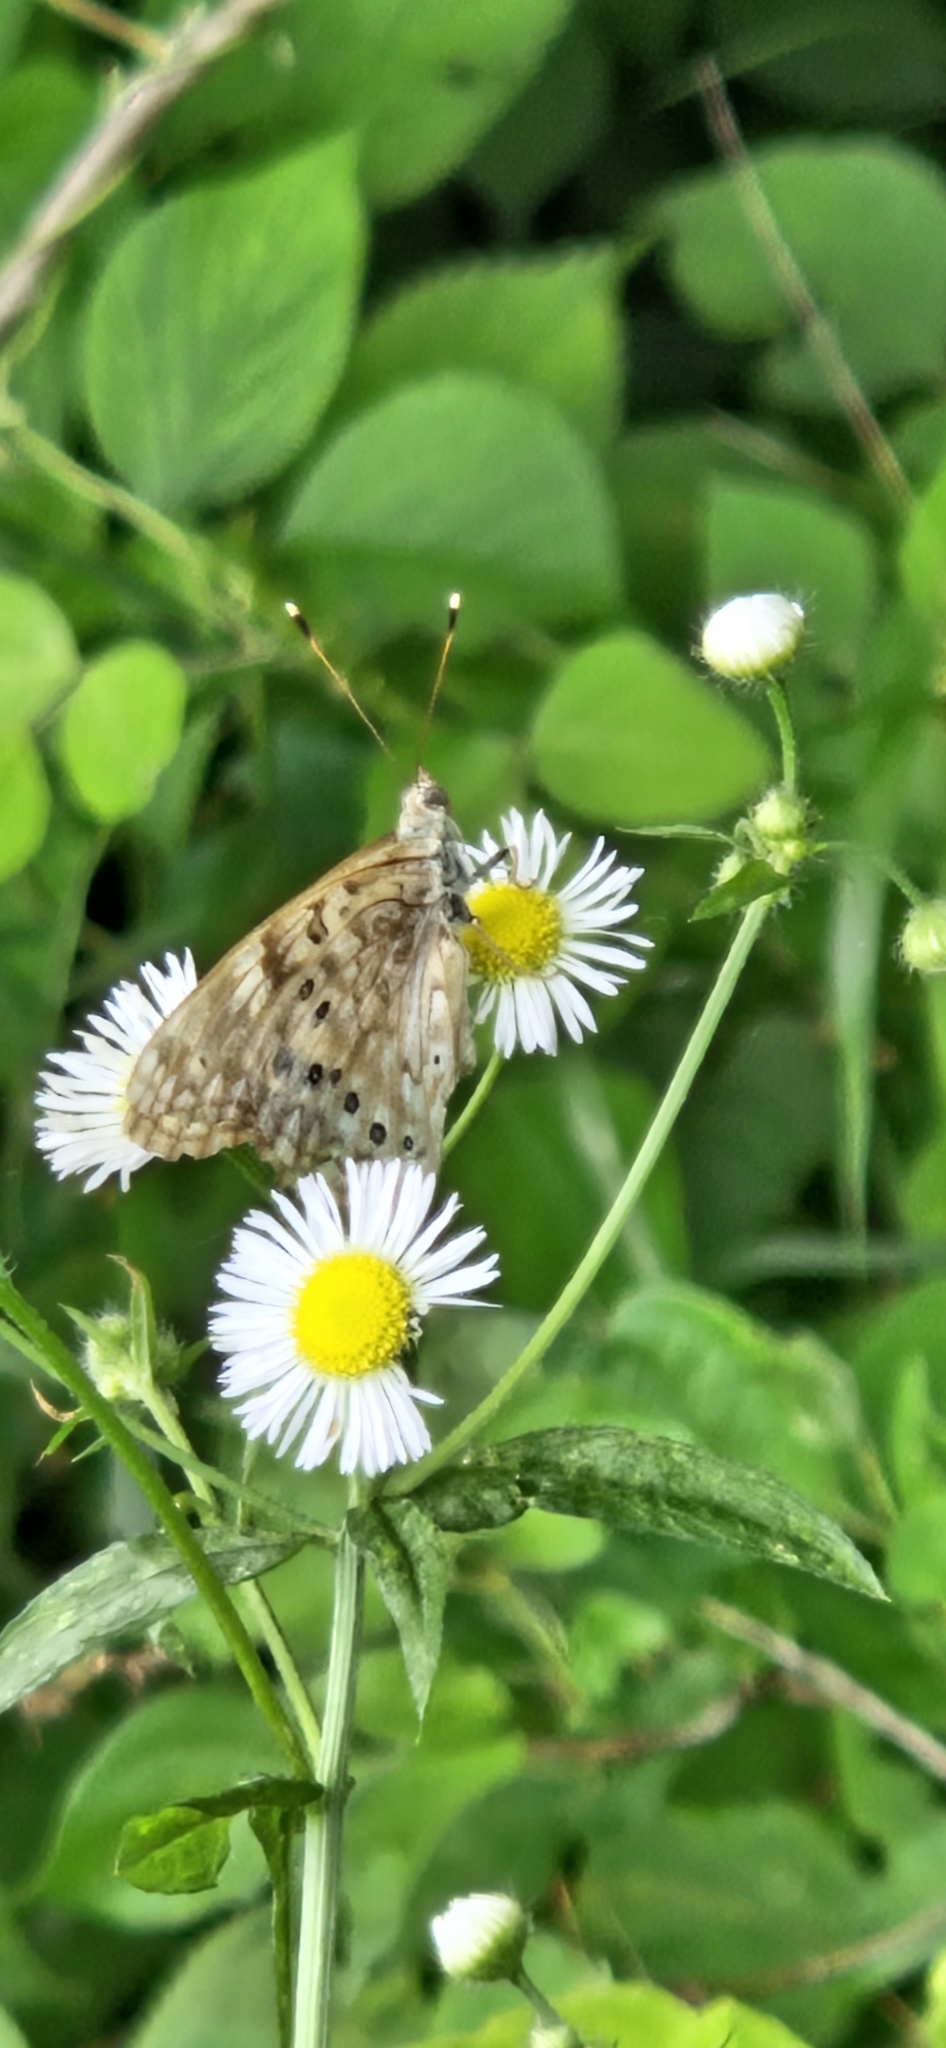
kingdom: Animalia
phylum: Arthropoda
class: Insecta
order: Lepidoptera
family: Nymphalidae
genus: Asterocampa
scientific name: Asterocampa celtis
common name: Hackberry emperor
